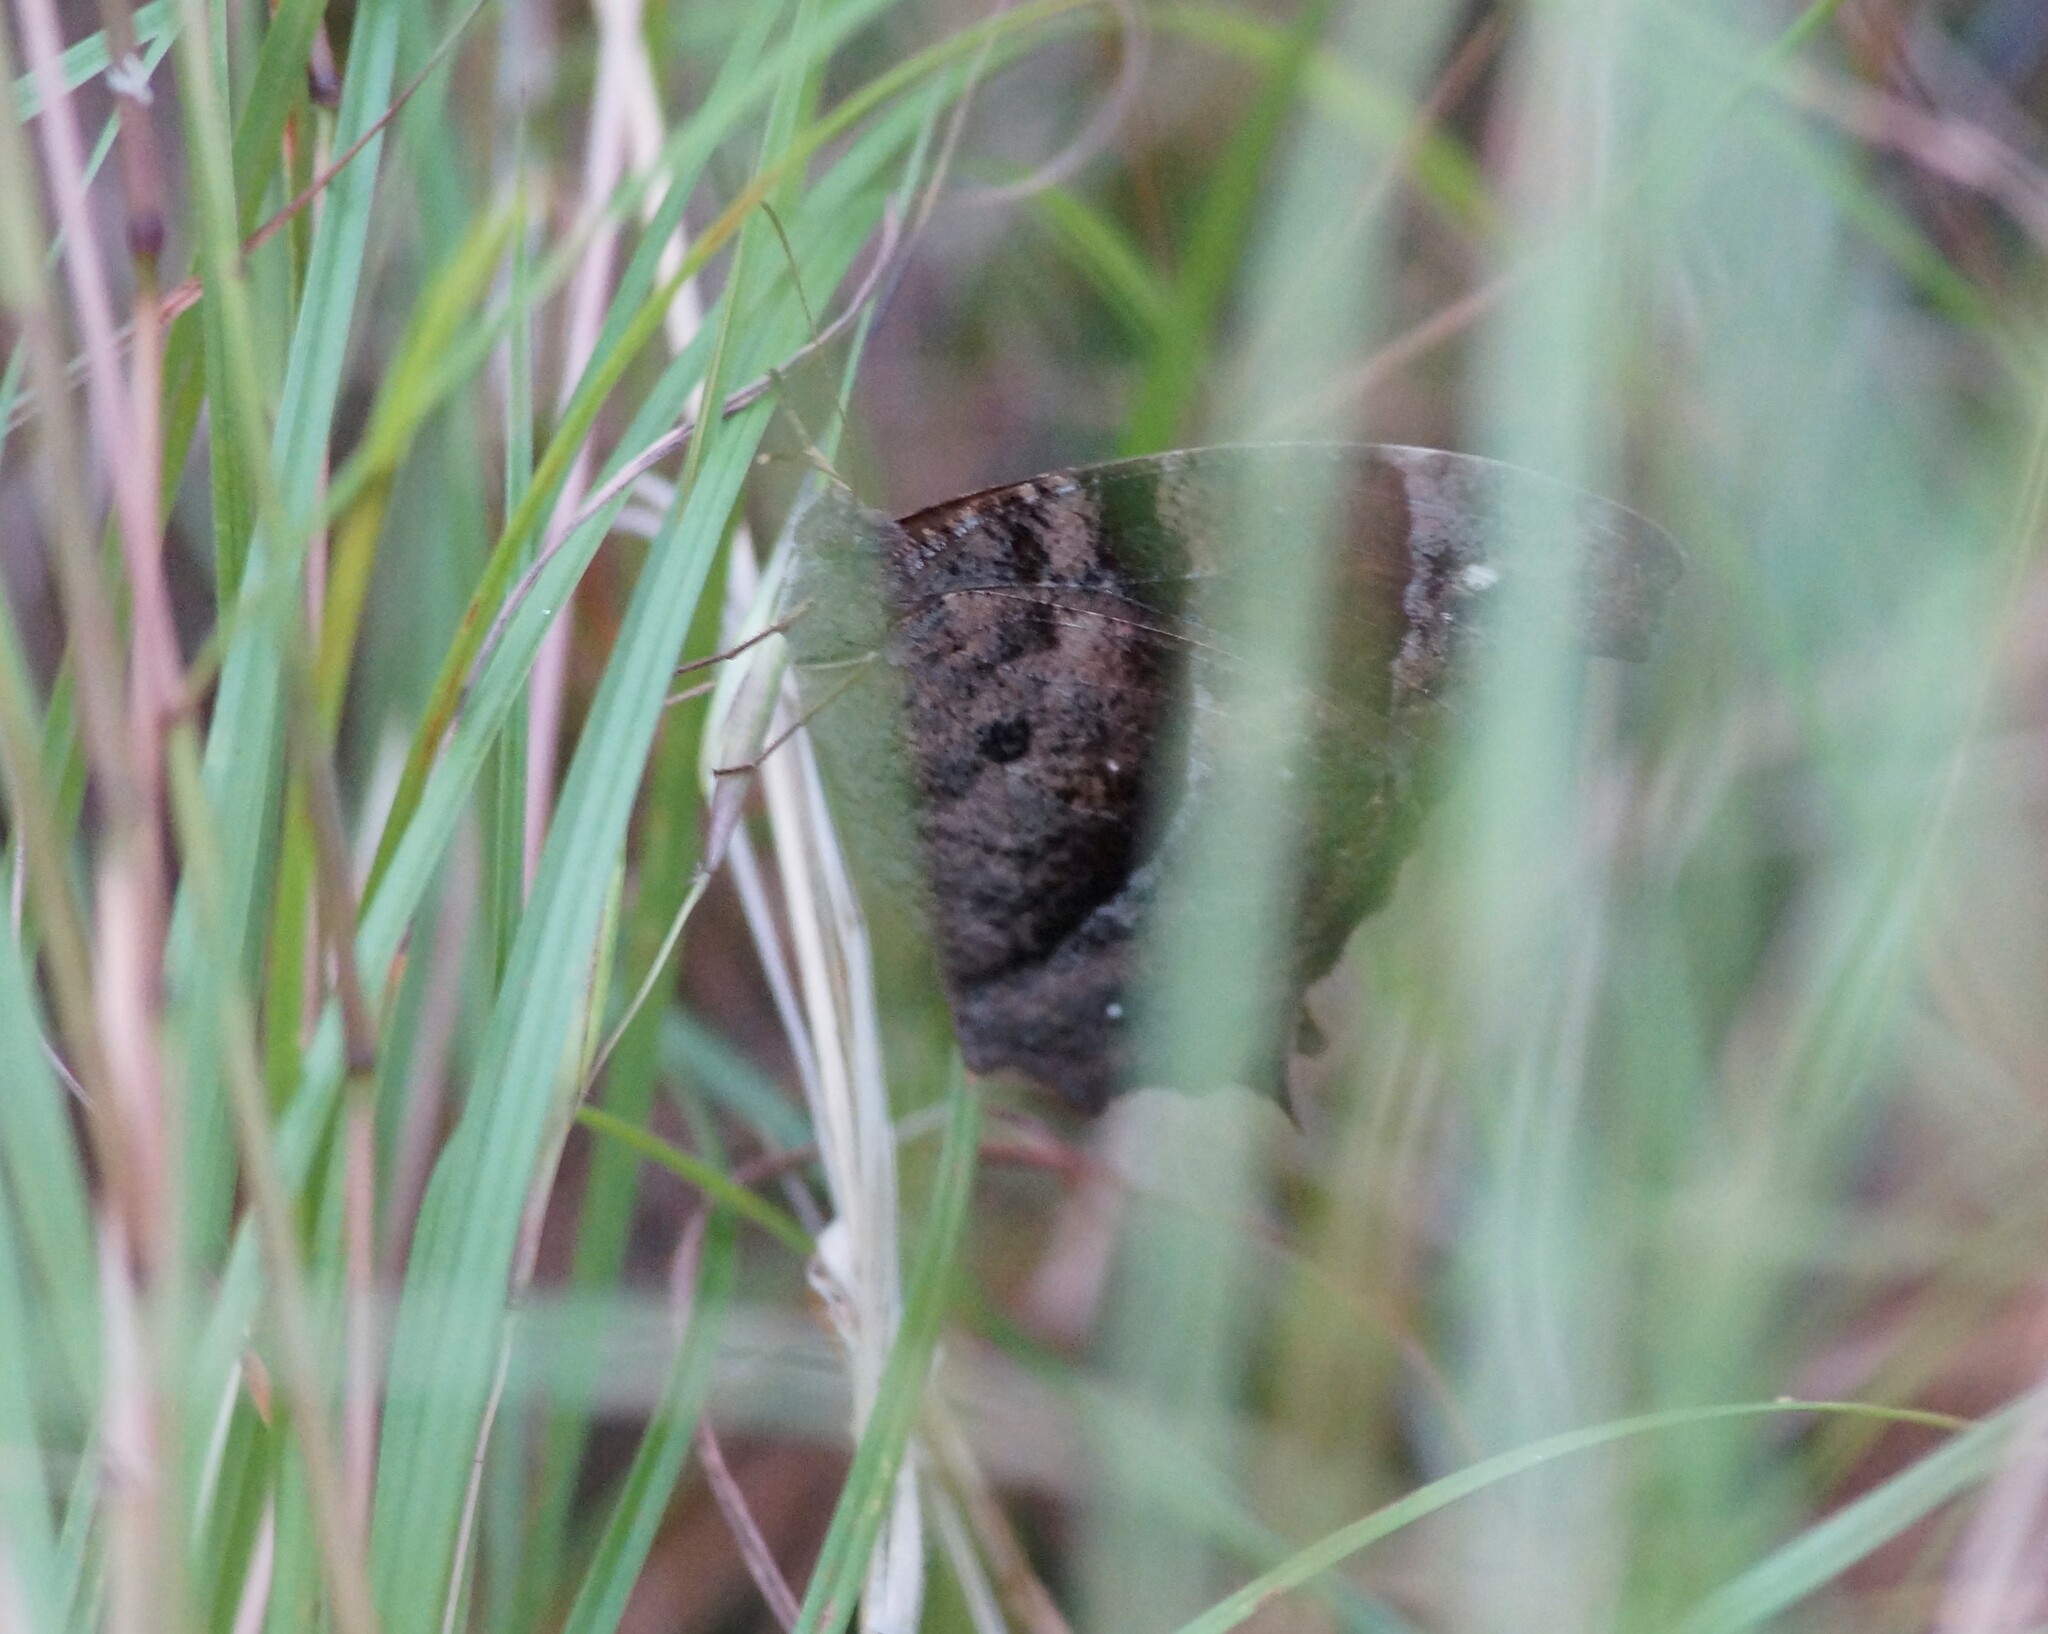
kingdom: Animalia
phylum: Arthropoda
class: Insecta
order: Lepidoptera
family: Nymphalidae
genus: Melanitis
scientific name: Melanitis leda
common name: Twilight brown
